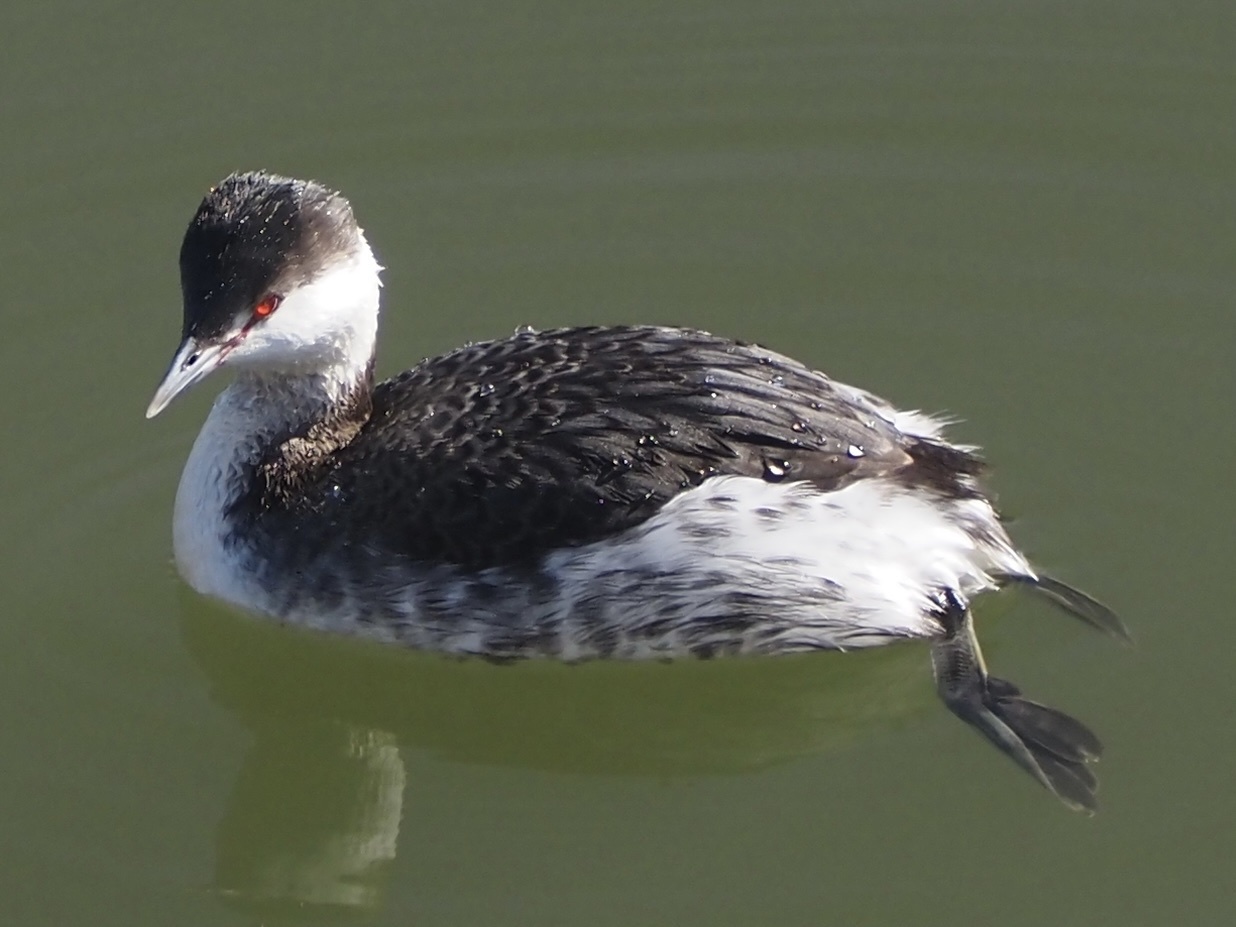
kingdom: Animalia
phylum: Chordata
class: Aves
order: Podicipediformes
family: Podicipedidae
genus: Podiceps
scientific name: Podiceps auritus
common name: Horned grebe
